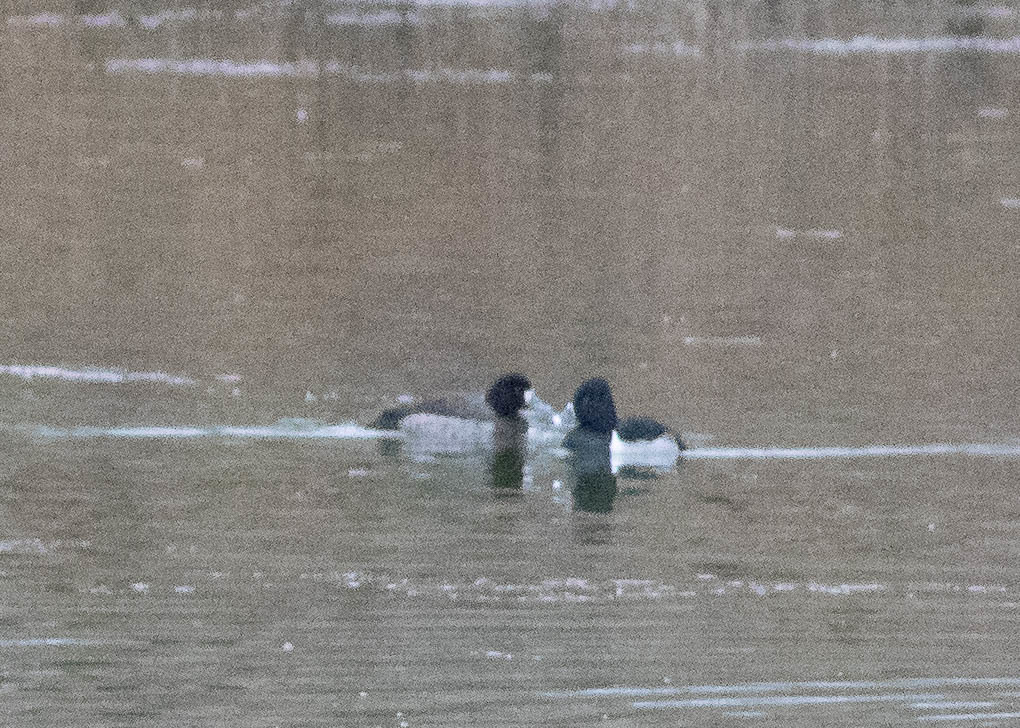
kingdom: Animalia
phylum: Chordata
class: Aves
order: Anseriformes
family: Anatidae
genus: Aythya
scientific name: Aythya collaris
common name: Ring-necked duck
